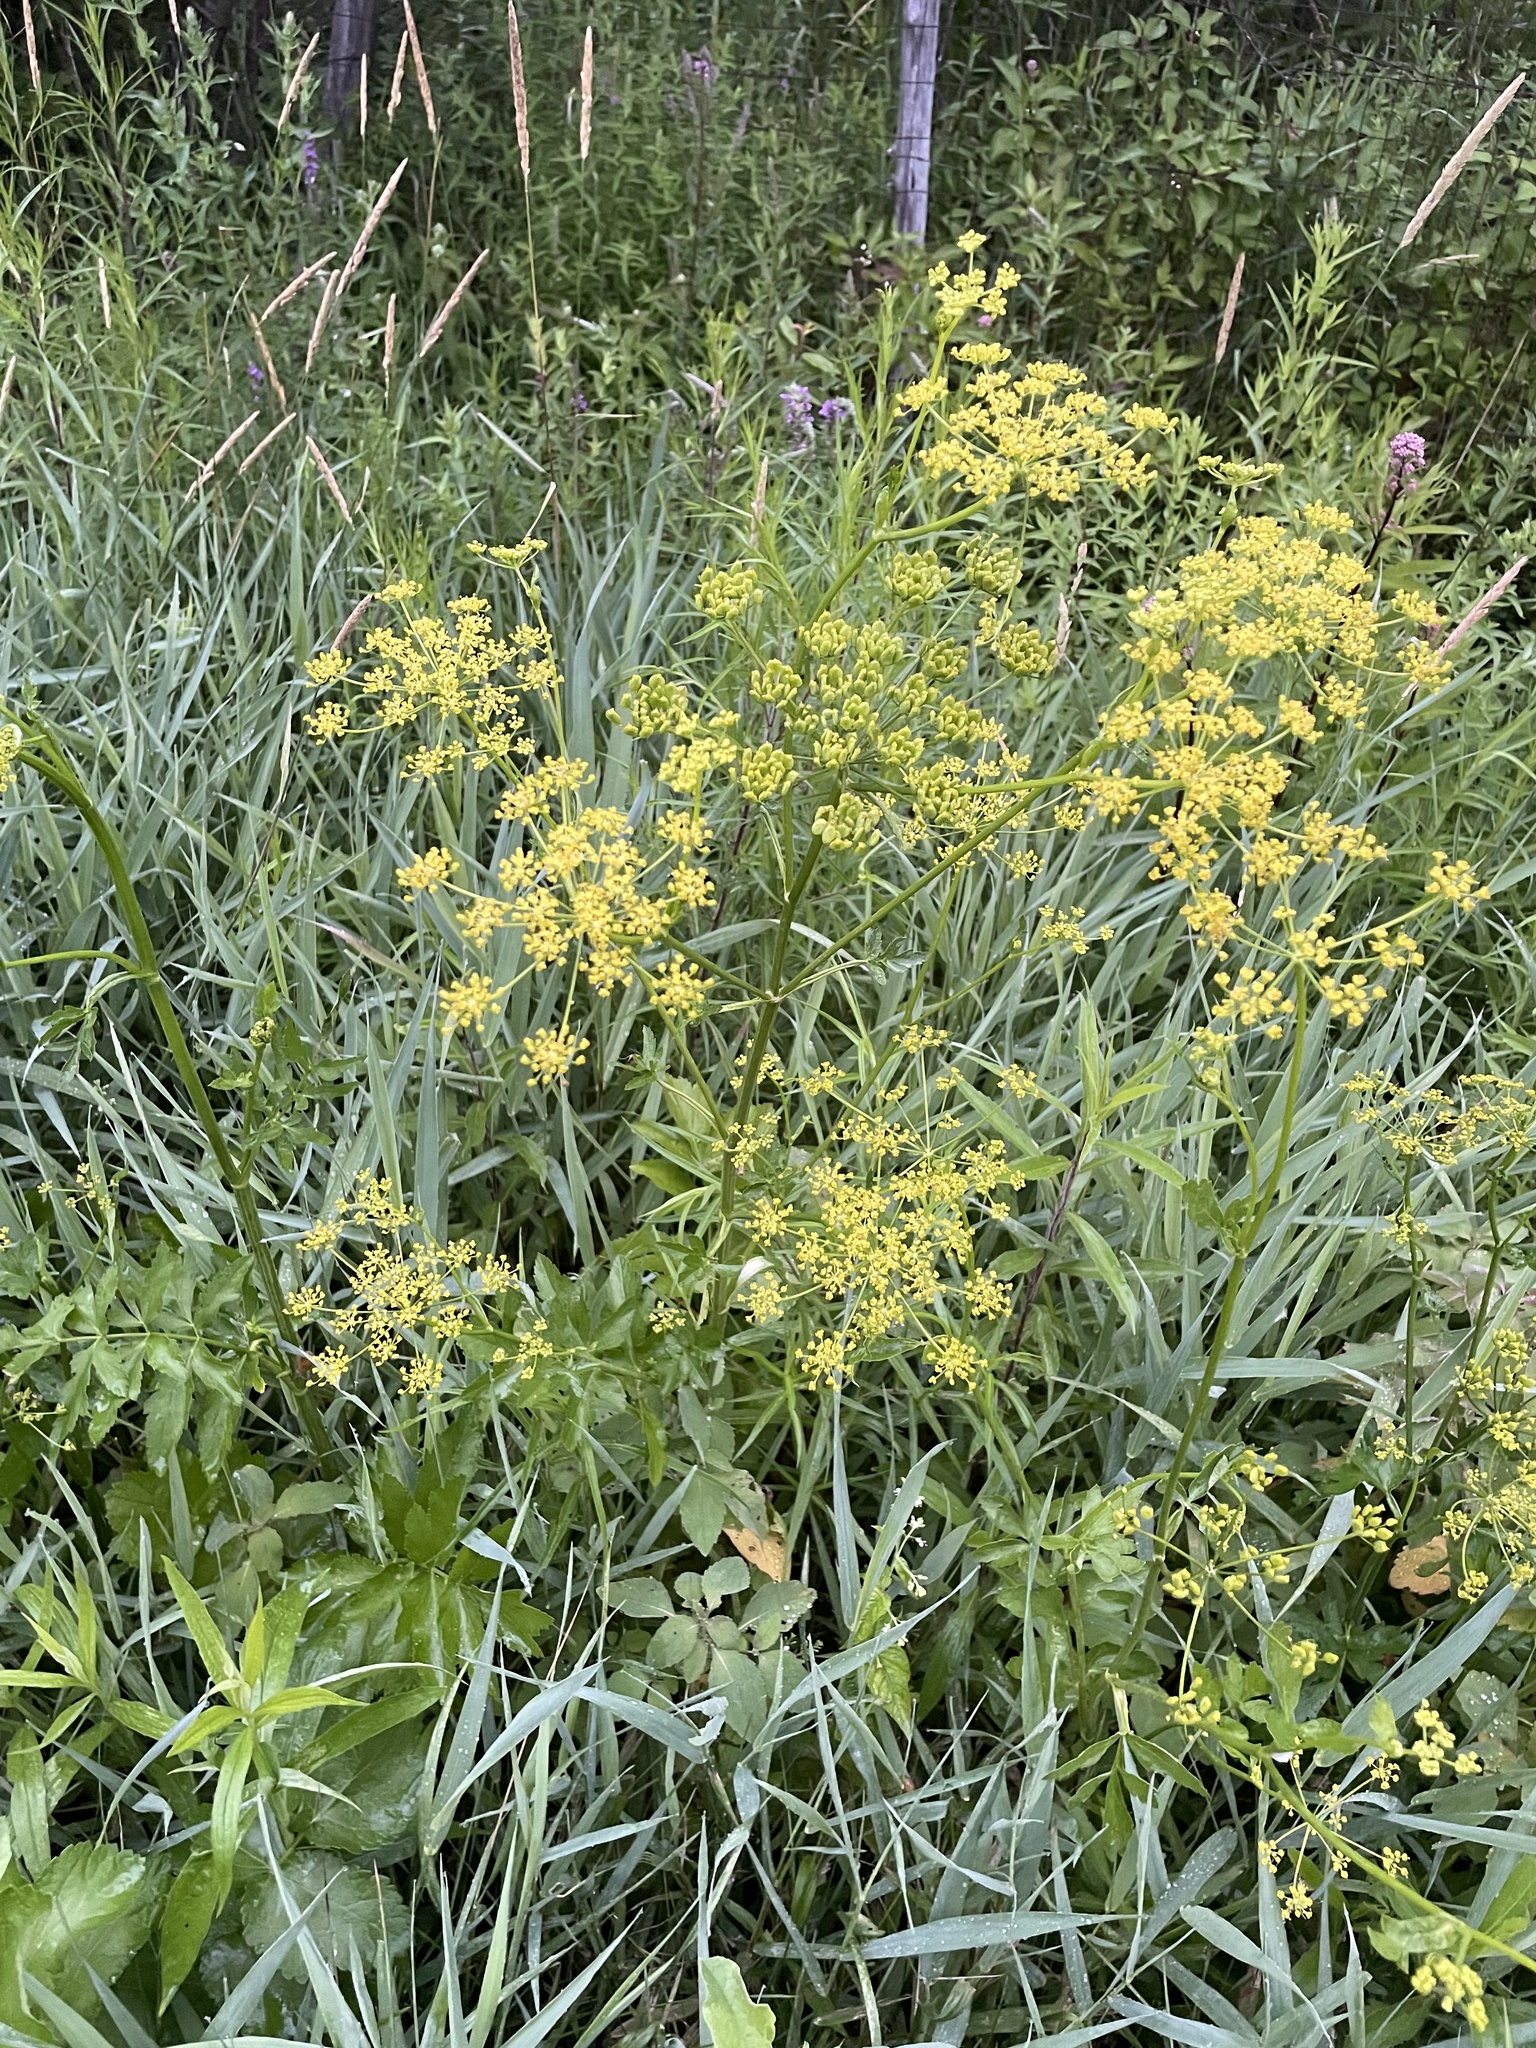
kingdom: Plantae
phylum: Tracheophyta
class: Magnoliopsida
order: Apiales
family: Apiaceae
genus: Pastinaca
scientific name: Pastinaca sativa
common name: Wild parsnip
